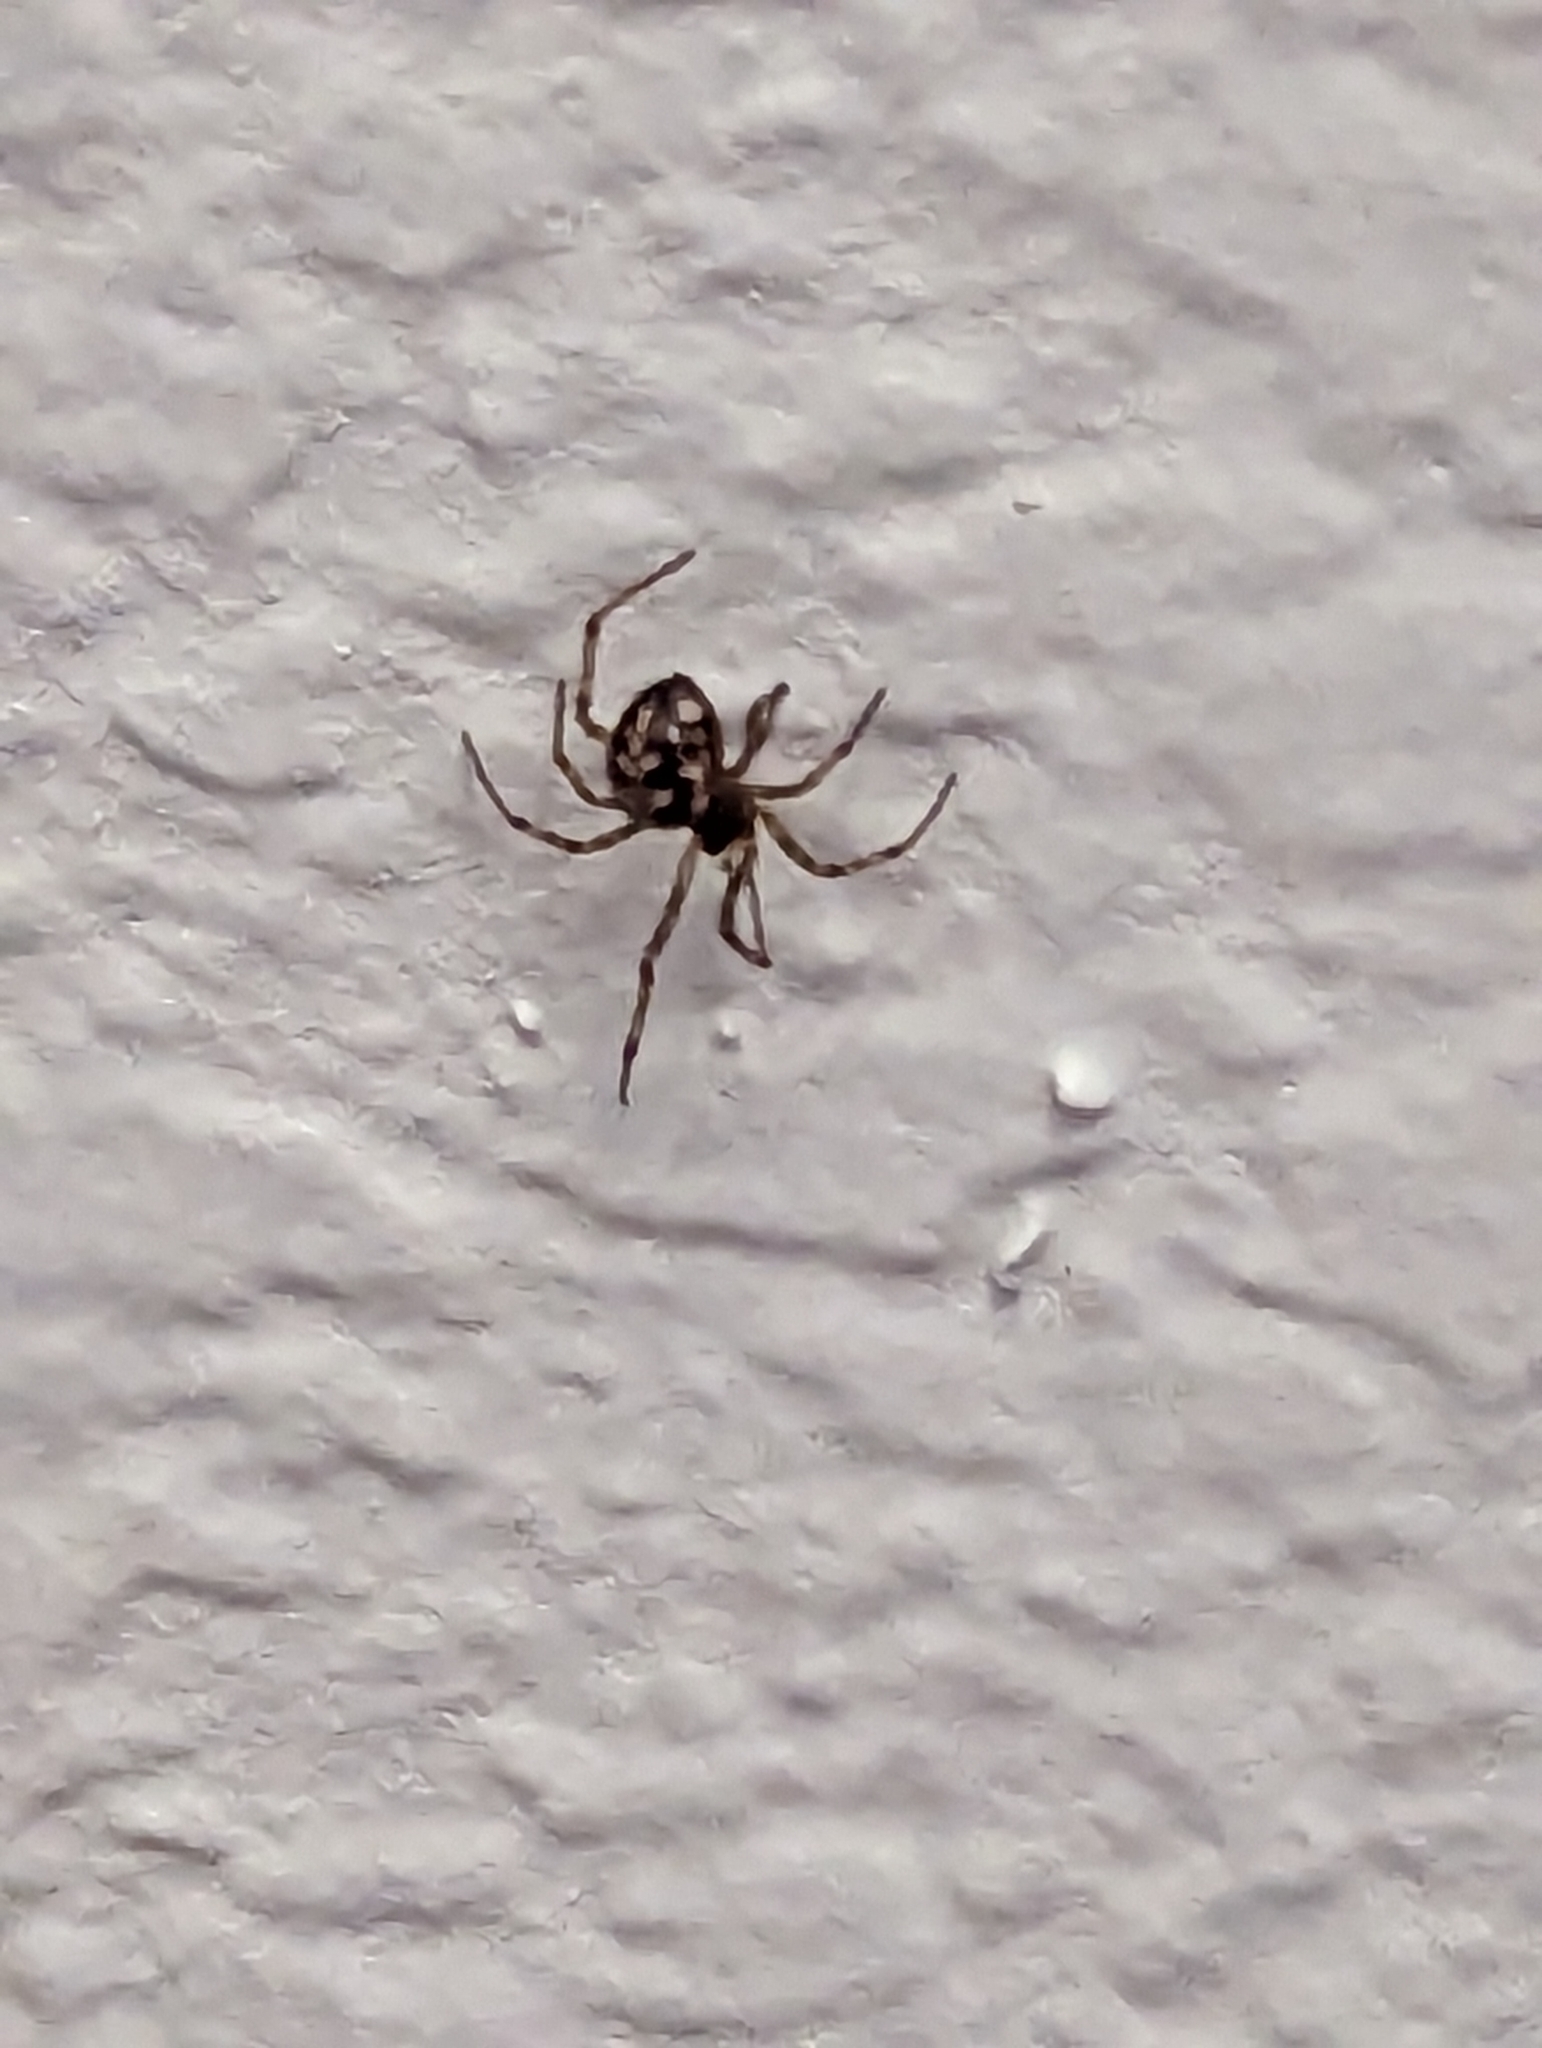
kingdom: Animalia
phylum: Arthropoda
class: Arachnida
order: Araneae
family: Theridiidae
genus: Steatoda
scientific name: Steatoda triangulosa
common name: Triangulate bud spider
